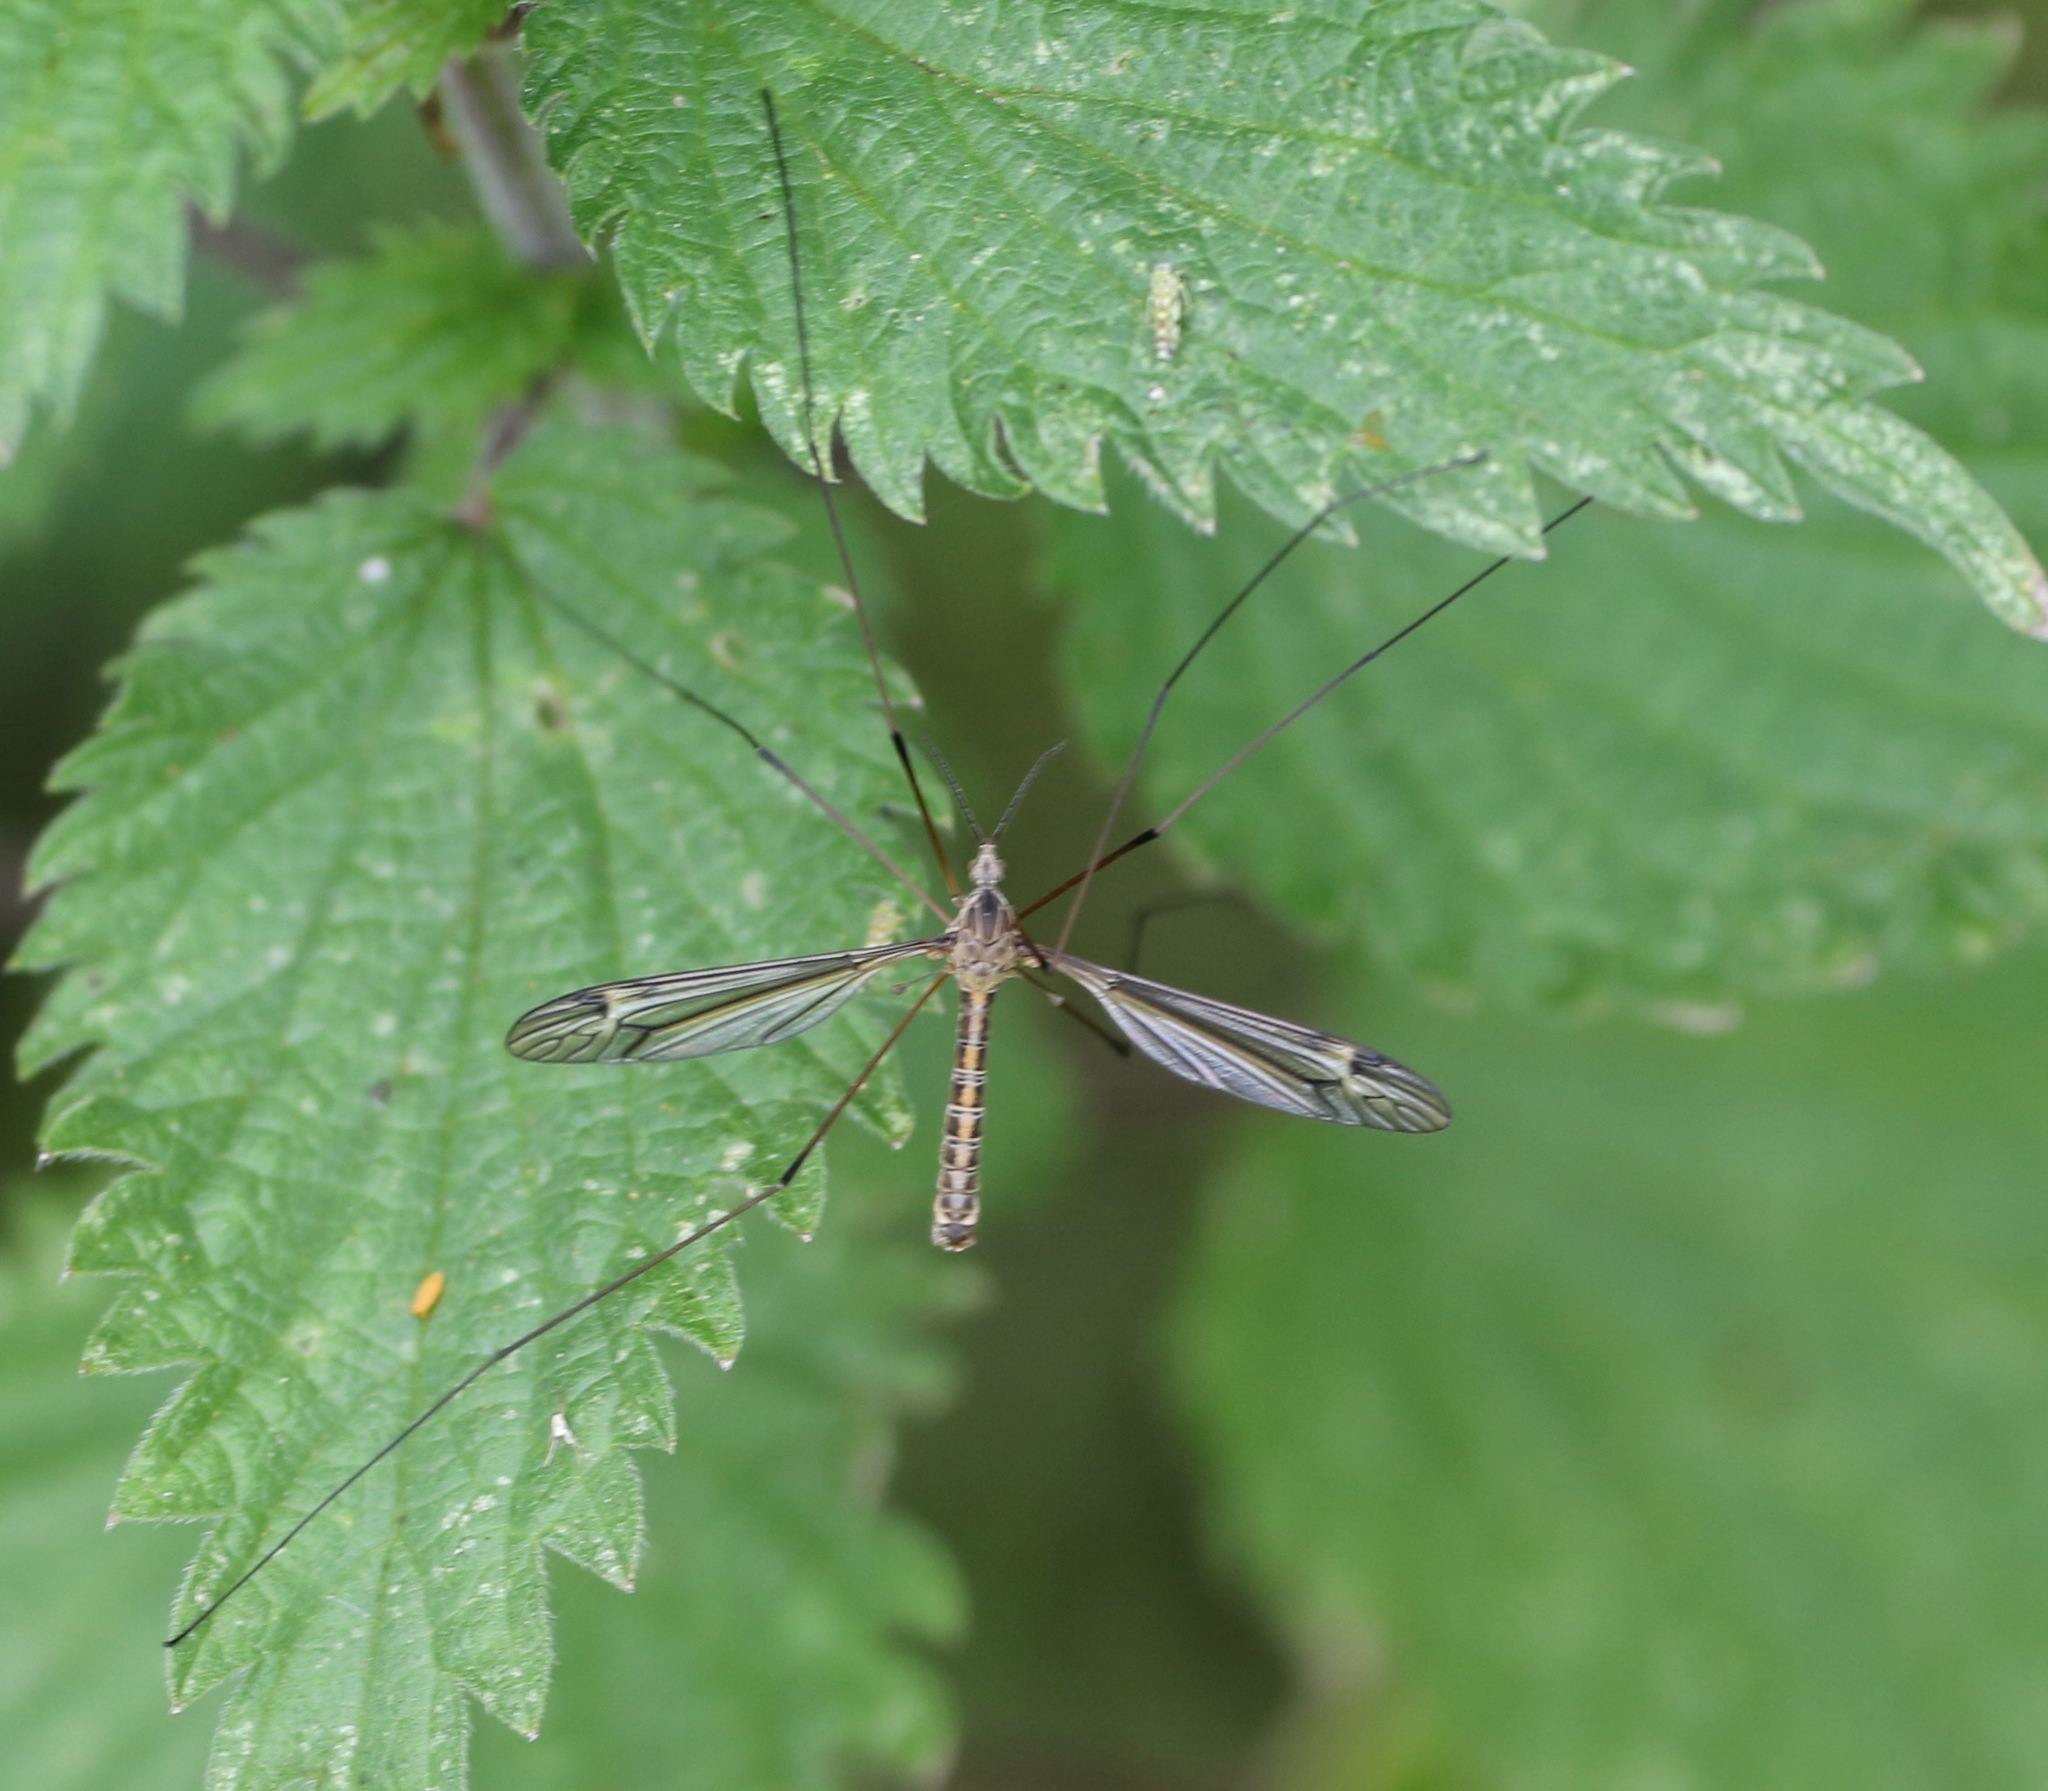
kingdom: Animalia
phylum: Arthropoda
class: Insecta
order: Diptera
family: Tipulidae
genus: Tipula
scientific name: Tipula lateralis
